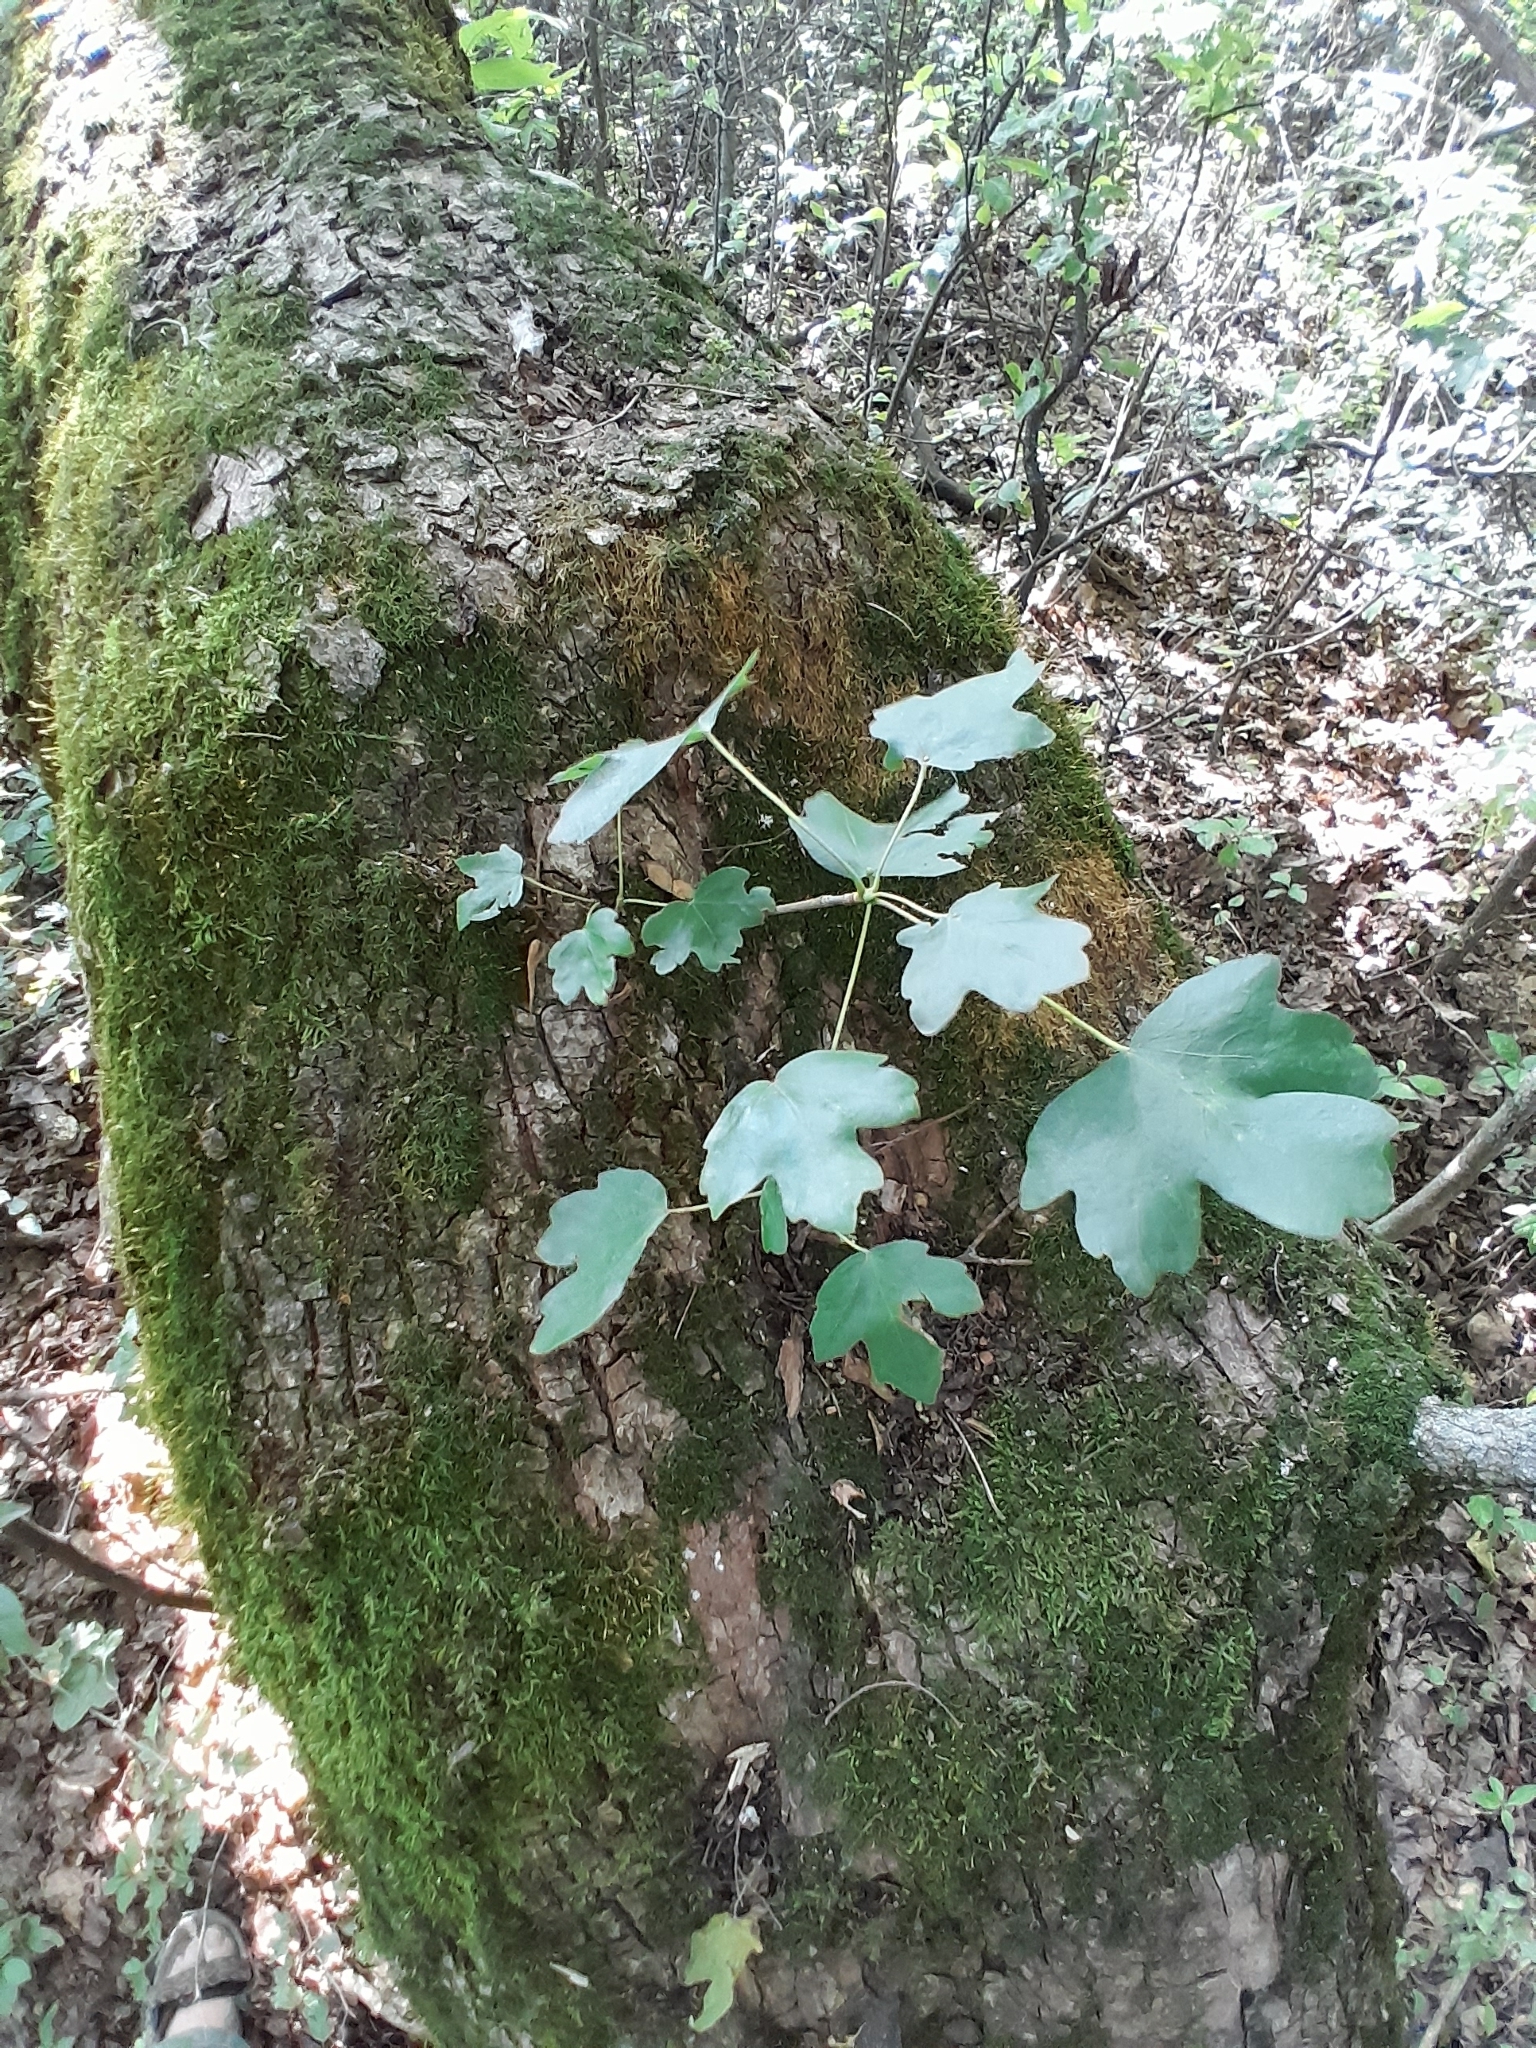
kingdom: Plantae
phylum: Tracheophyta
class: Magnoliopsida
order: Sapindales
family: Sapindaceae
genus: Acer
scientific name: Acer campestre
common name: Field maple
